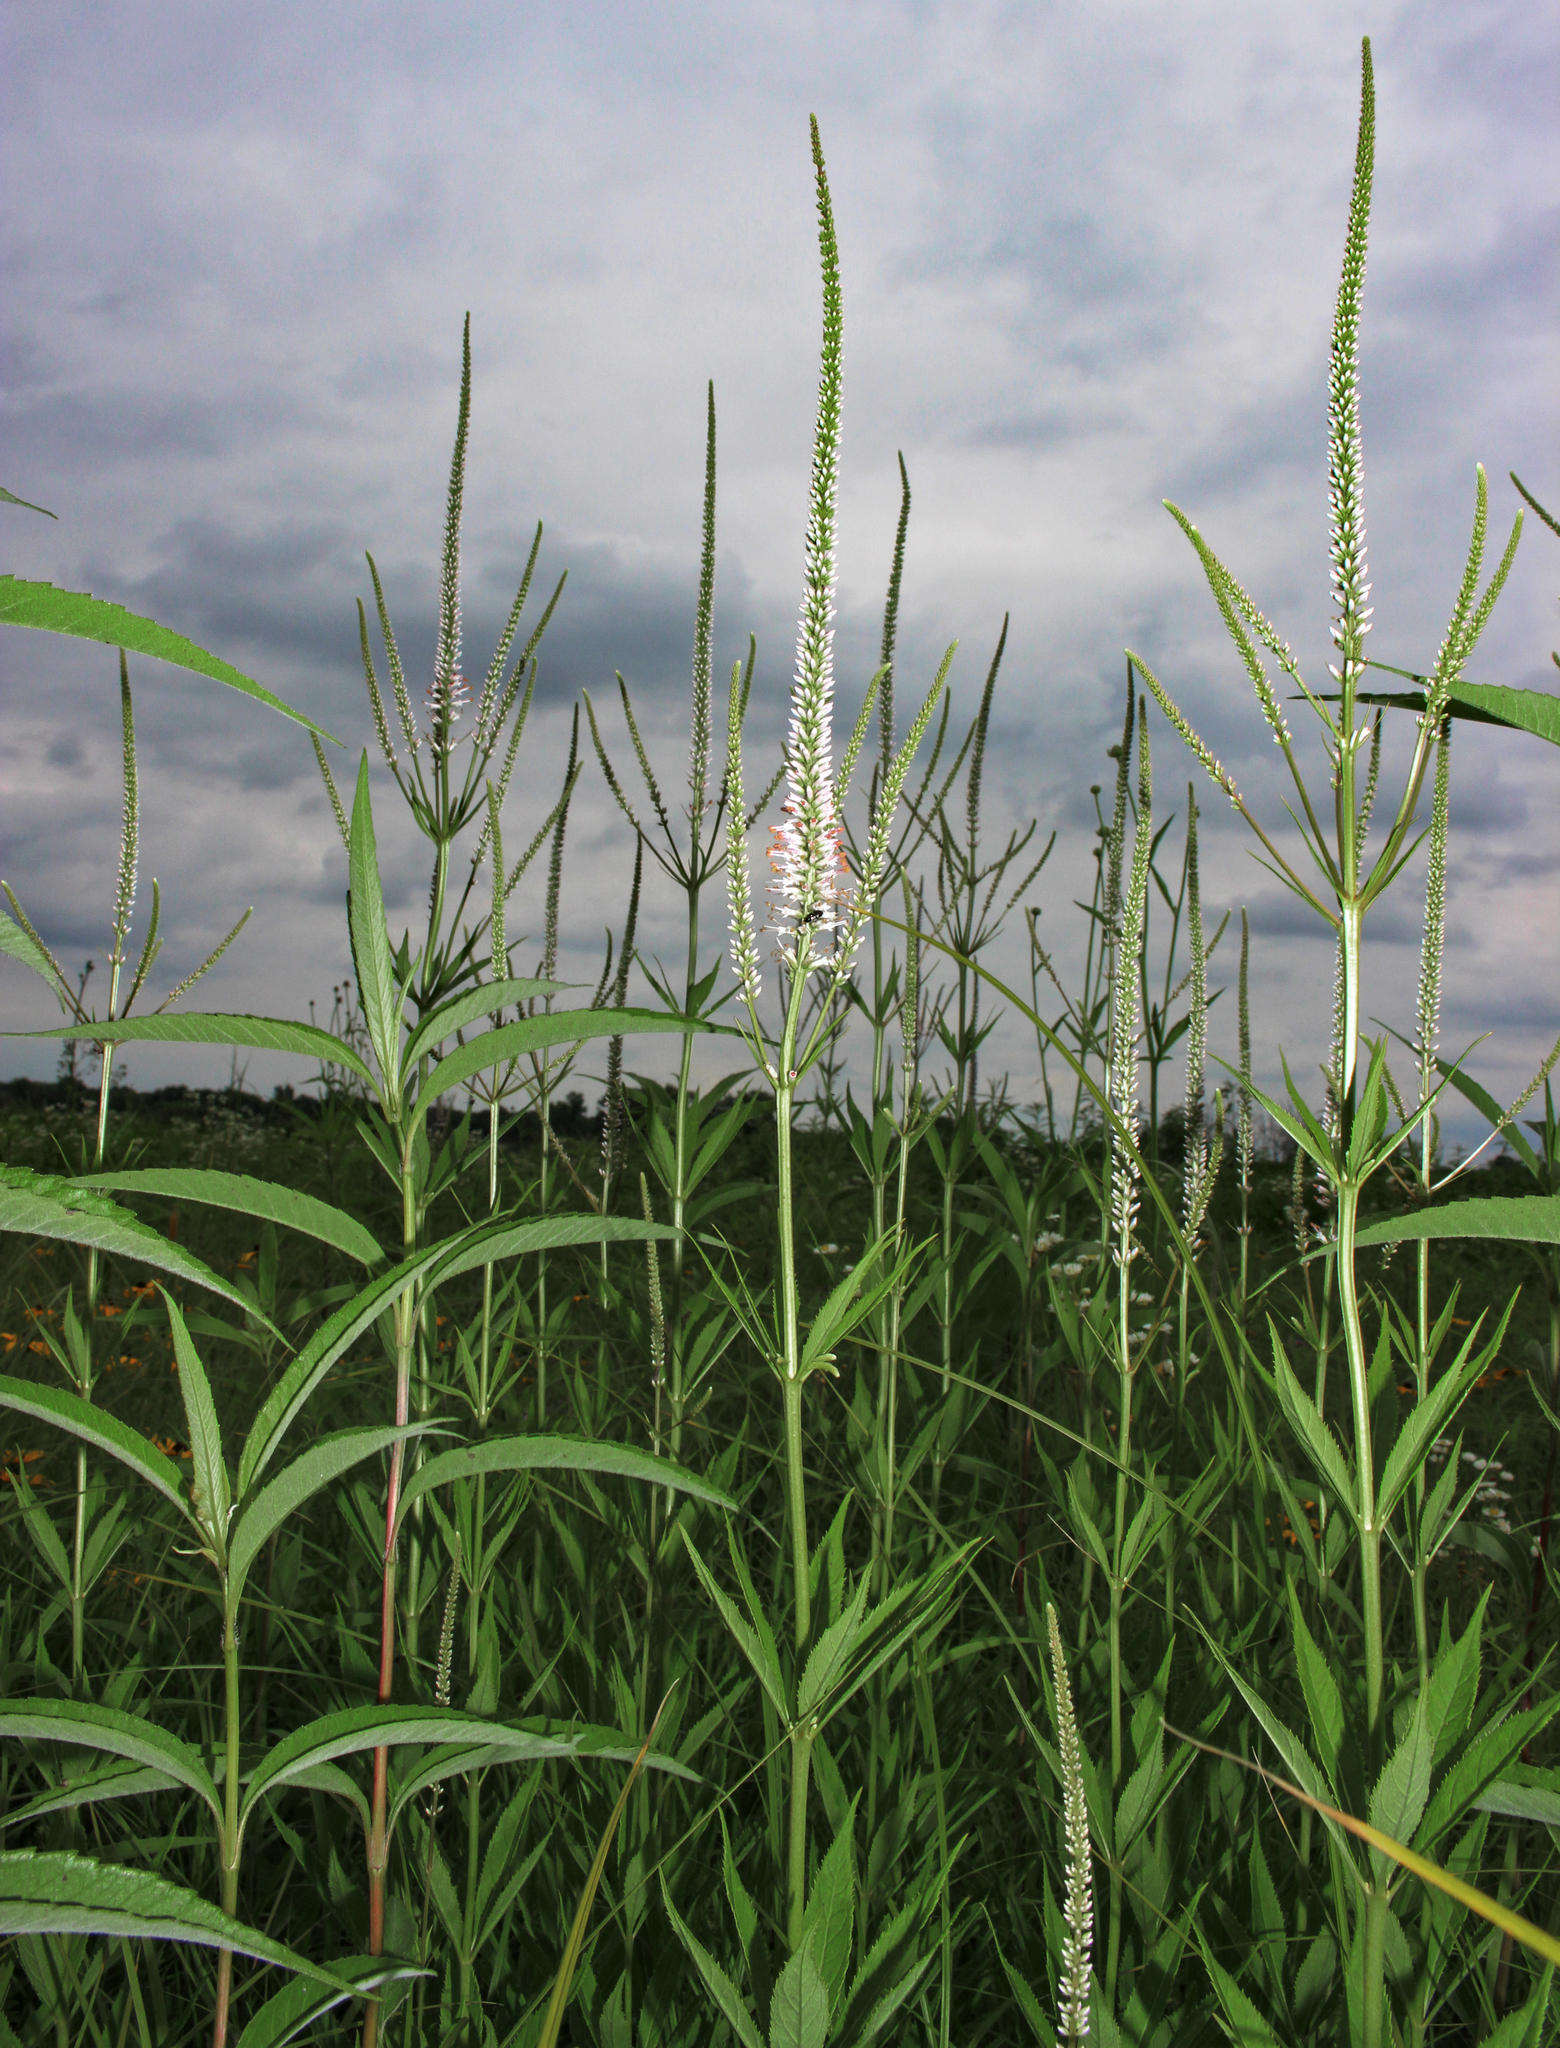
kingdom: Plantae
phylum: Tracheophyta
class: Magnoliopsida
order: Lamiales
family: Plantaginaceae
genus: Veronicastrum
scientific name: Veronicastrum virginicum
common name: Blackroot
